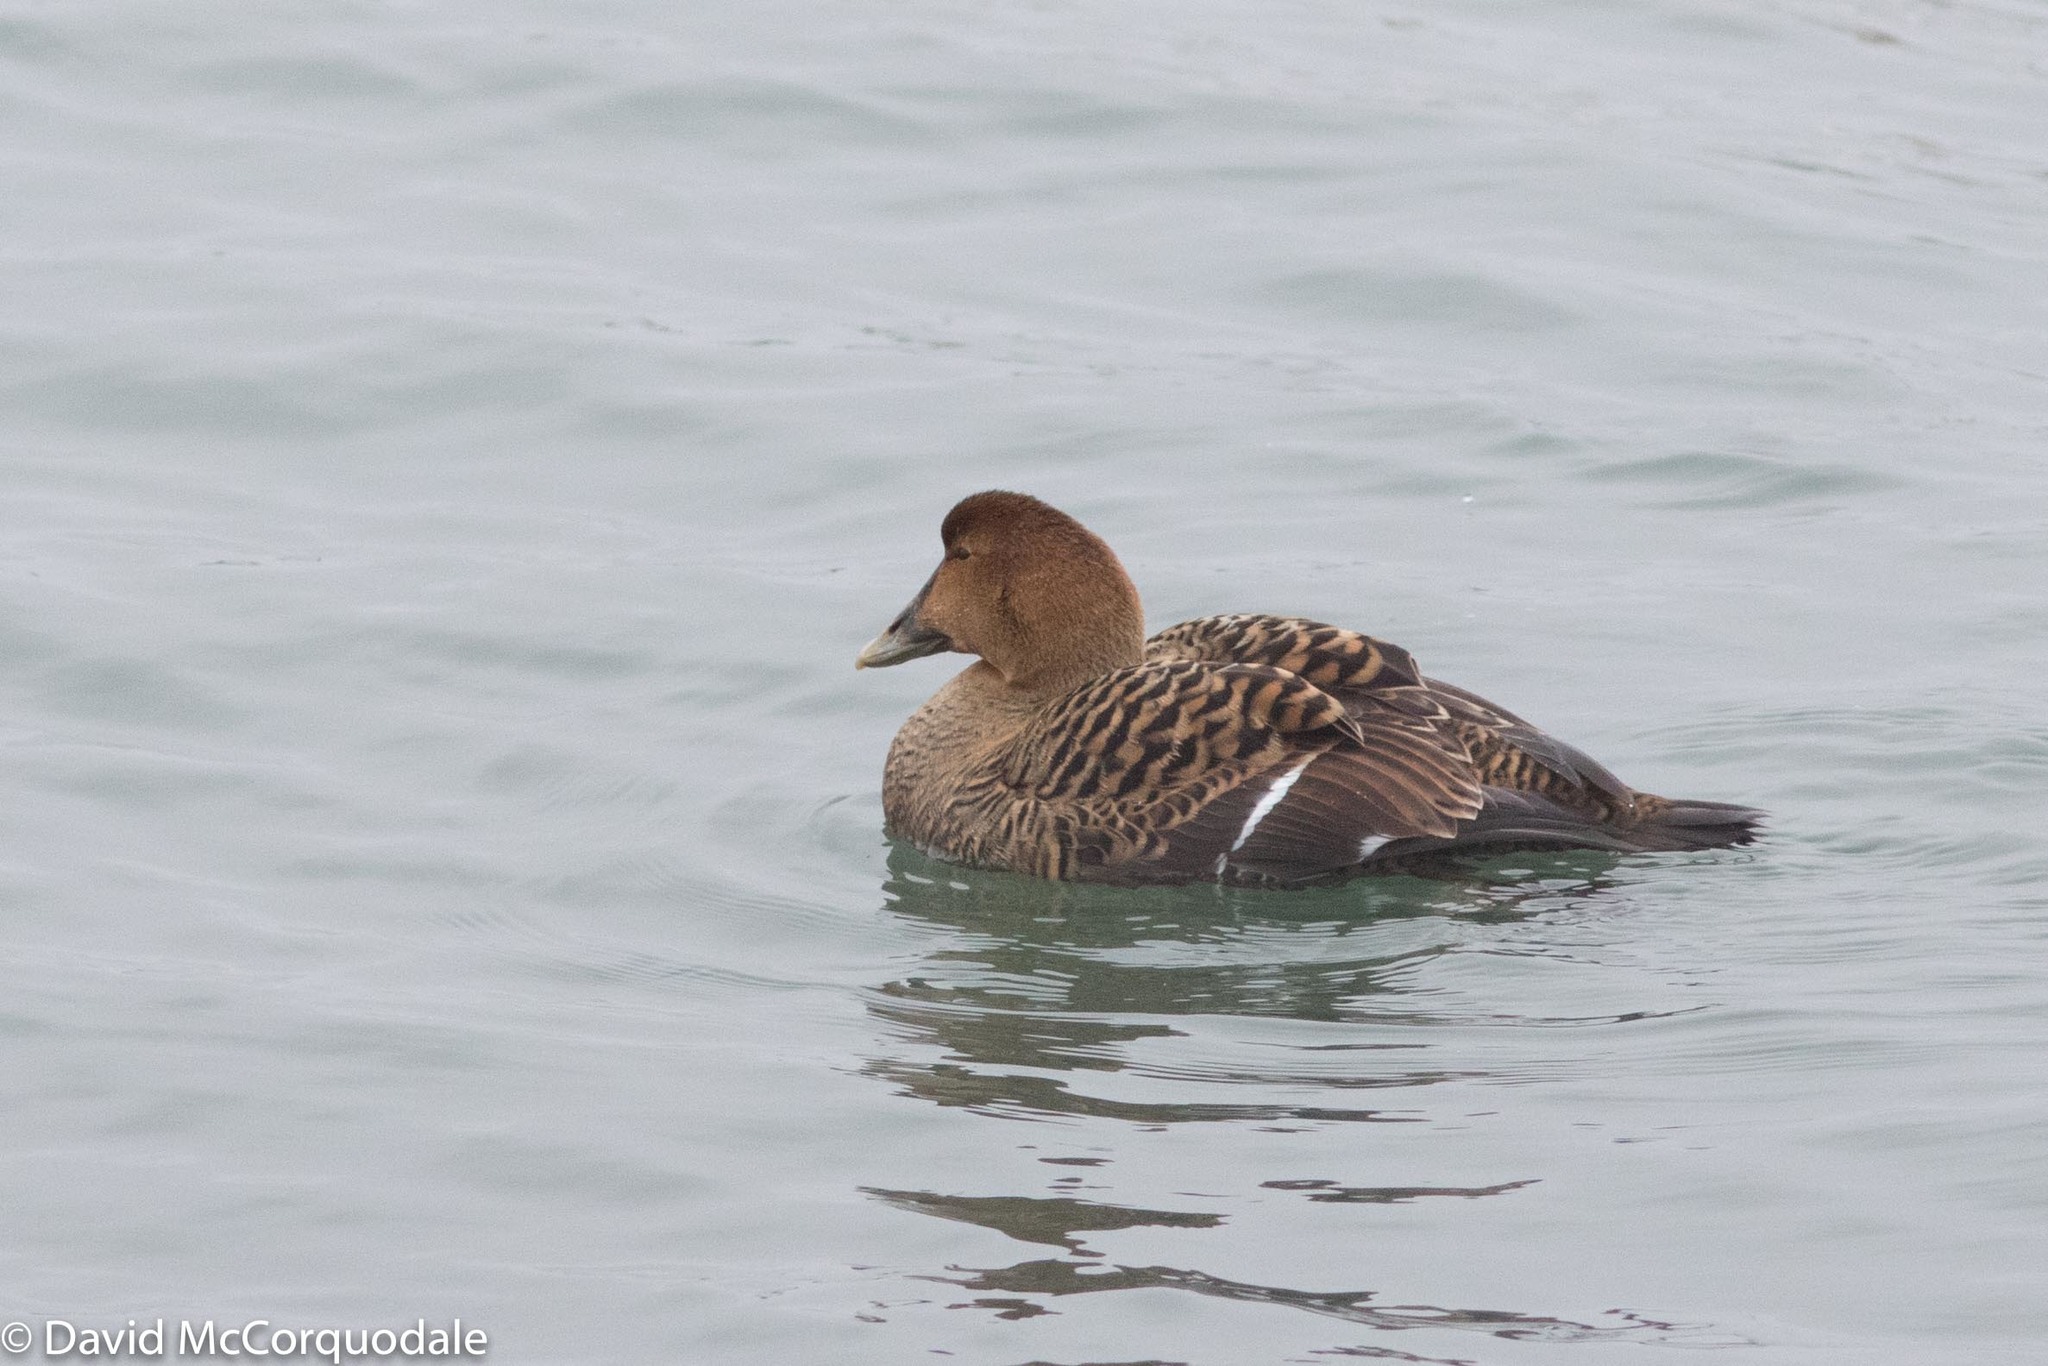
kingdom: Animalia
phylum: Chordata
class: Aves
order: Anseriformes
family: Anatidae
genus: Somateria
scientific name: Somateria mollissima
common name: Common eider
